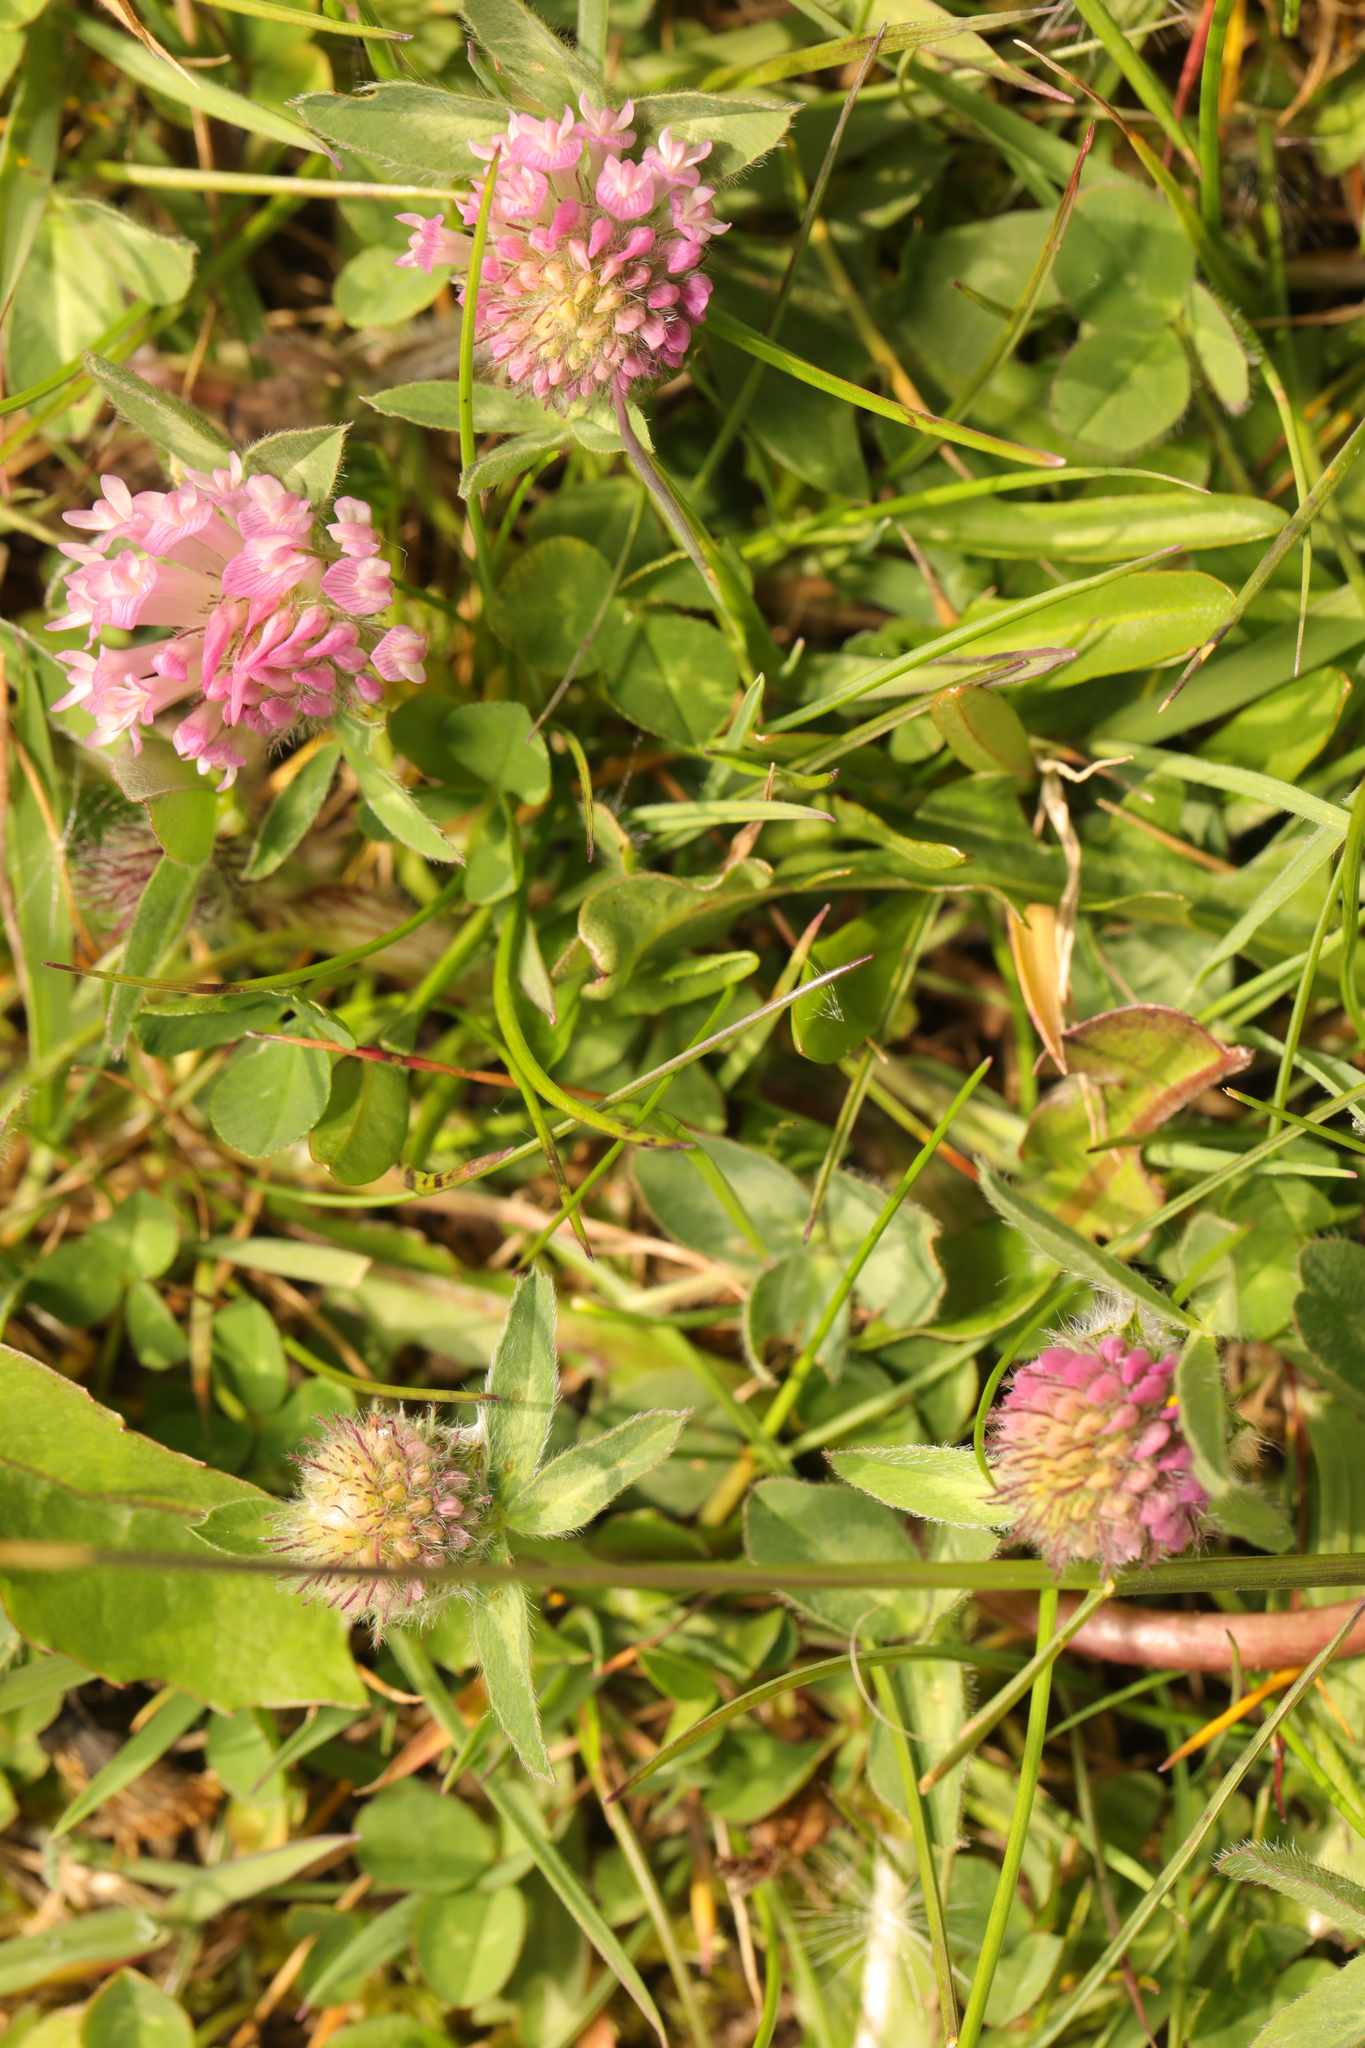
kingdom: Plantae
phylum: Tracheophyta
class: Magnoliopsida
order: Fabales
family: Fabaceae
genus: Trifolium
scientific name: Trifolium pratense
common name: Red clover
